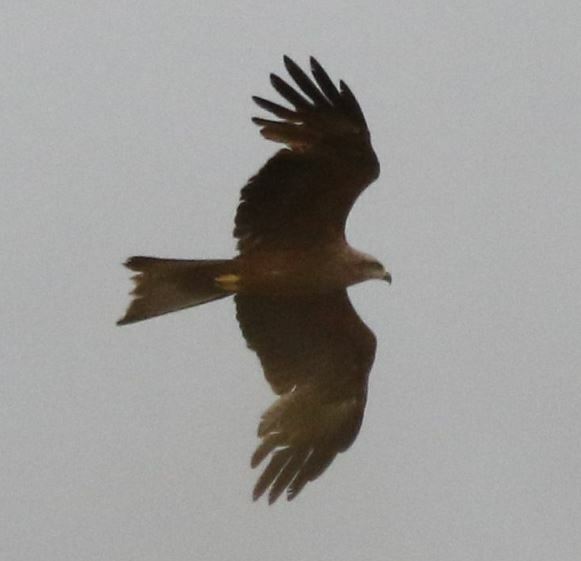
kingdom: Animalia
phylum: Chordata
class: Aves
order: Accipitriformes
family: Accipitridae
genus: Milvus
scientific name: Milvus migrans
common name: Black kite
